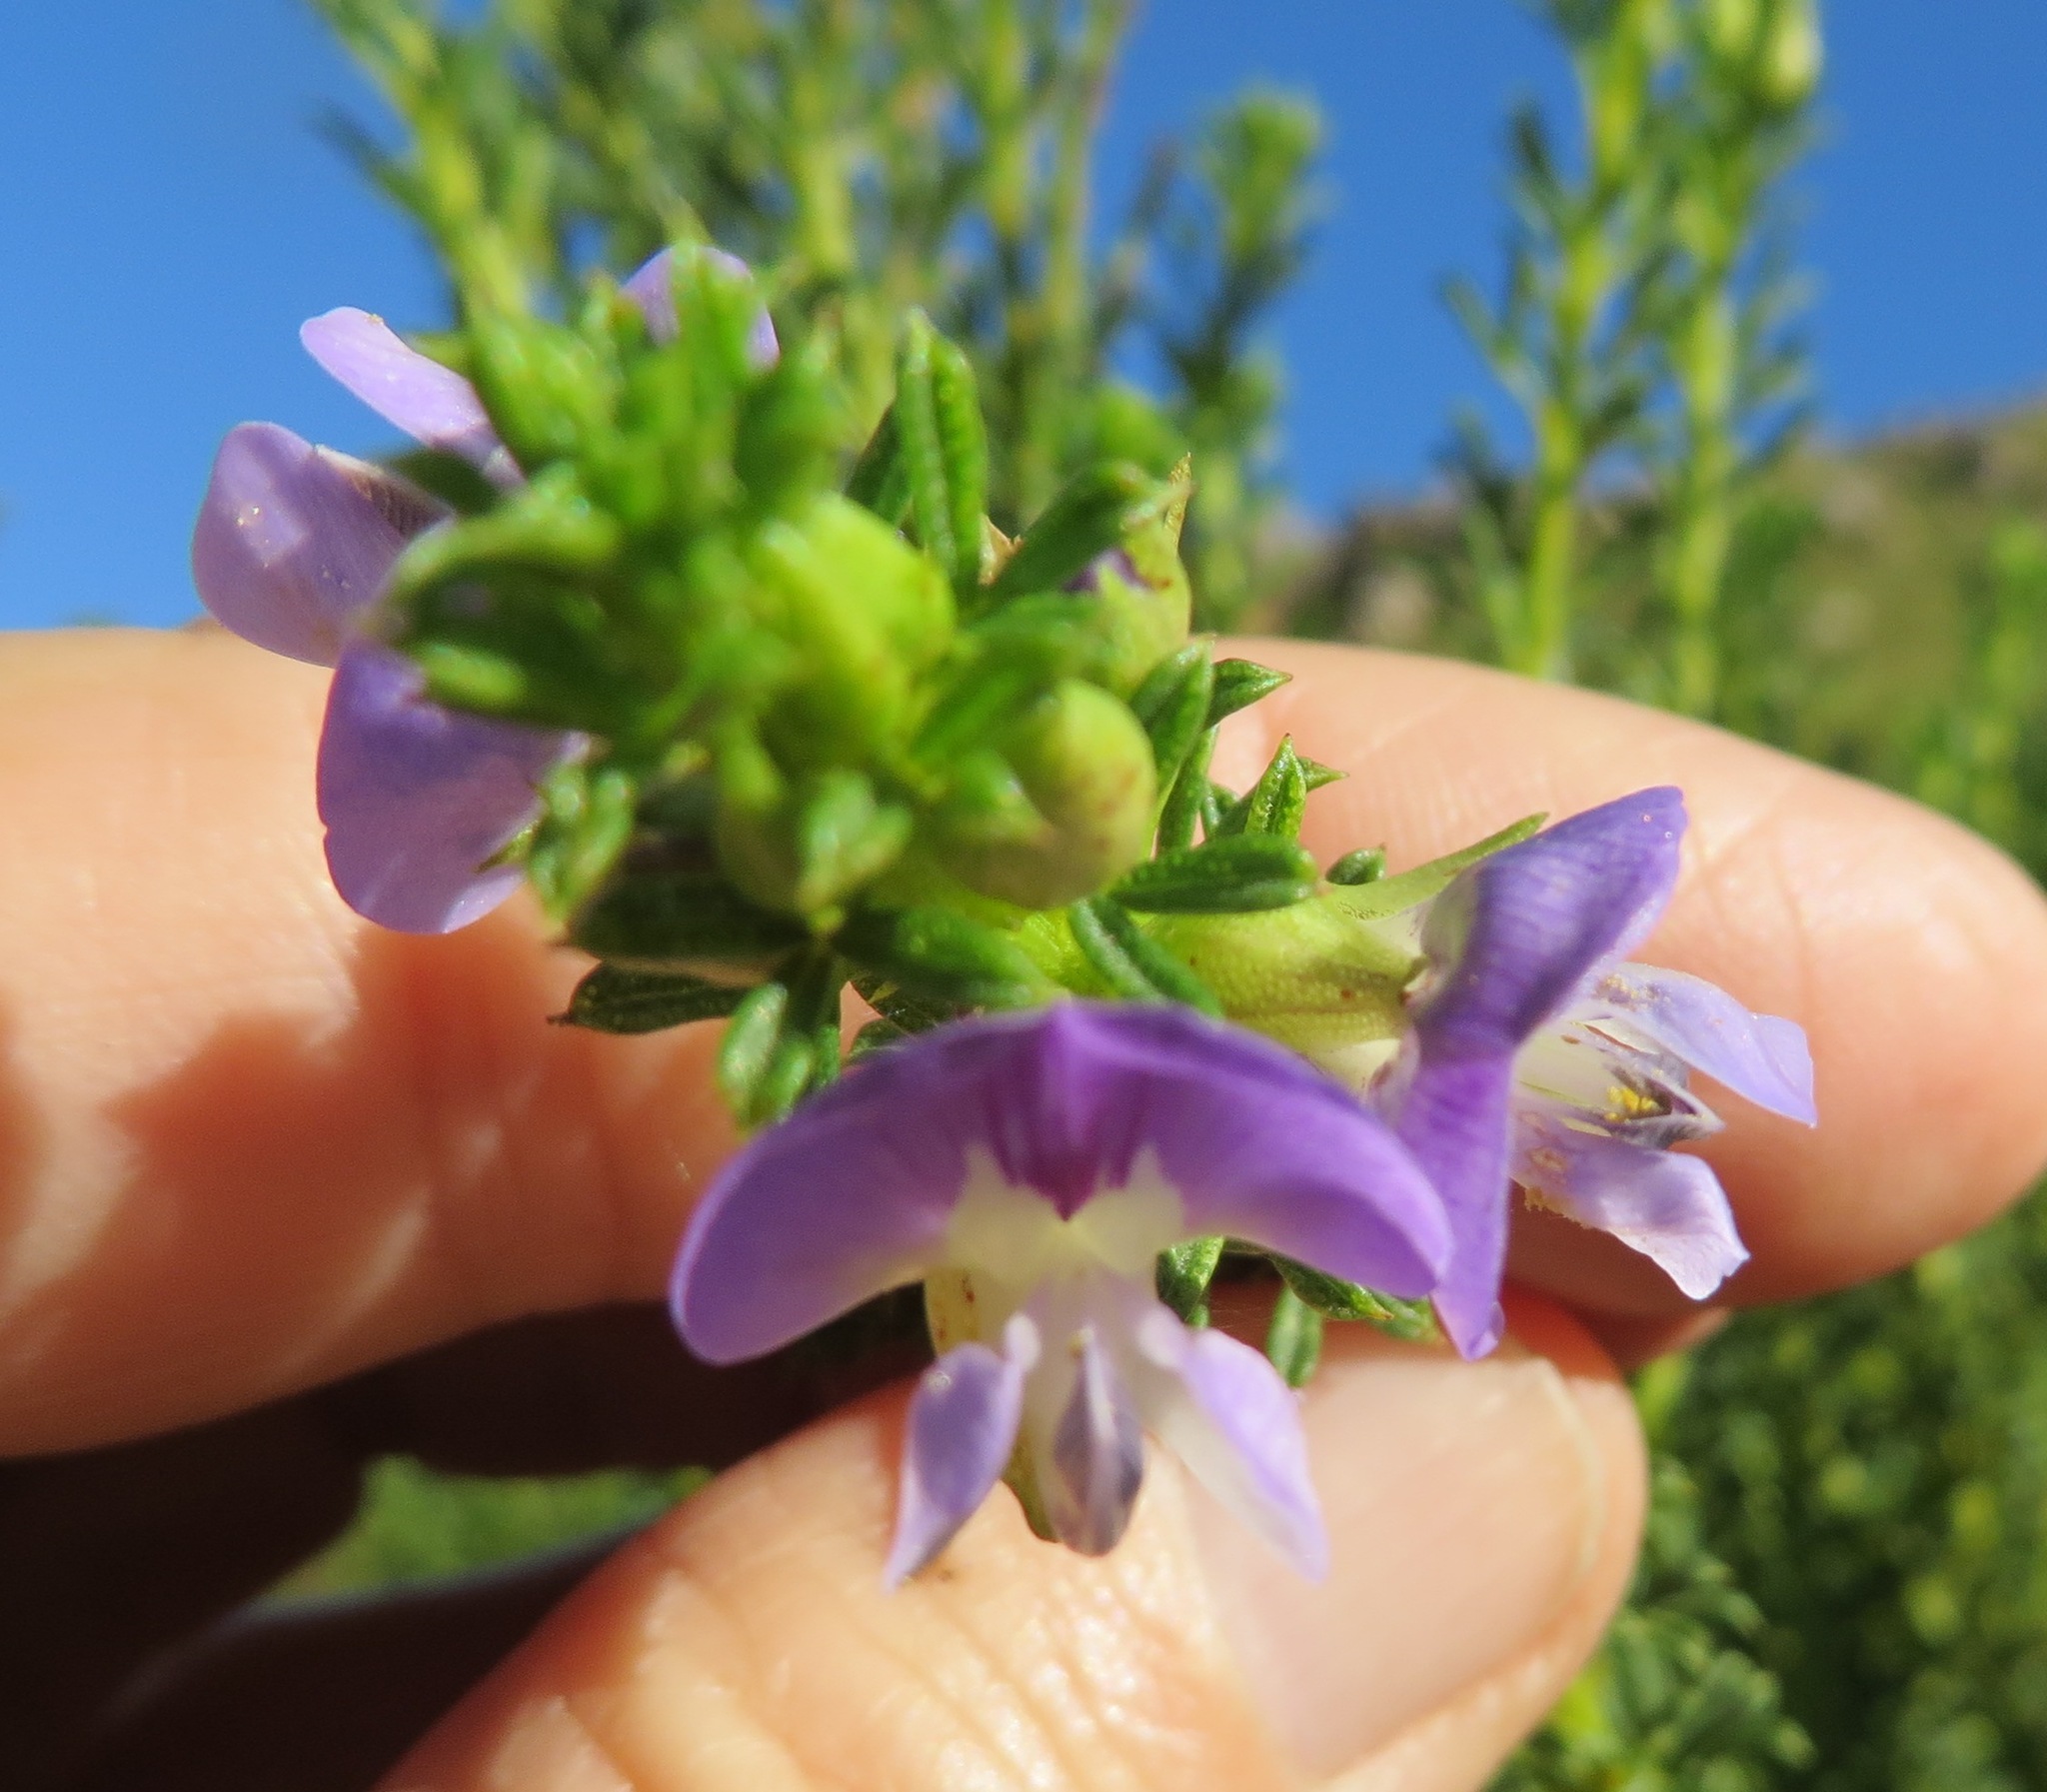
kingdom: Plantae
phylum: Tracheophyta
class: Magnoliopsida
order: Fabales
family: Fabaceae
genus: Psoralea
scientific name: Psoralea aculeata
